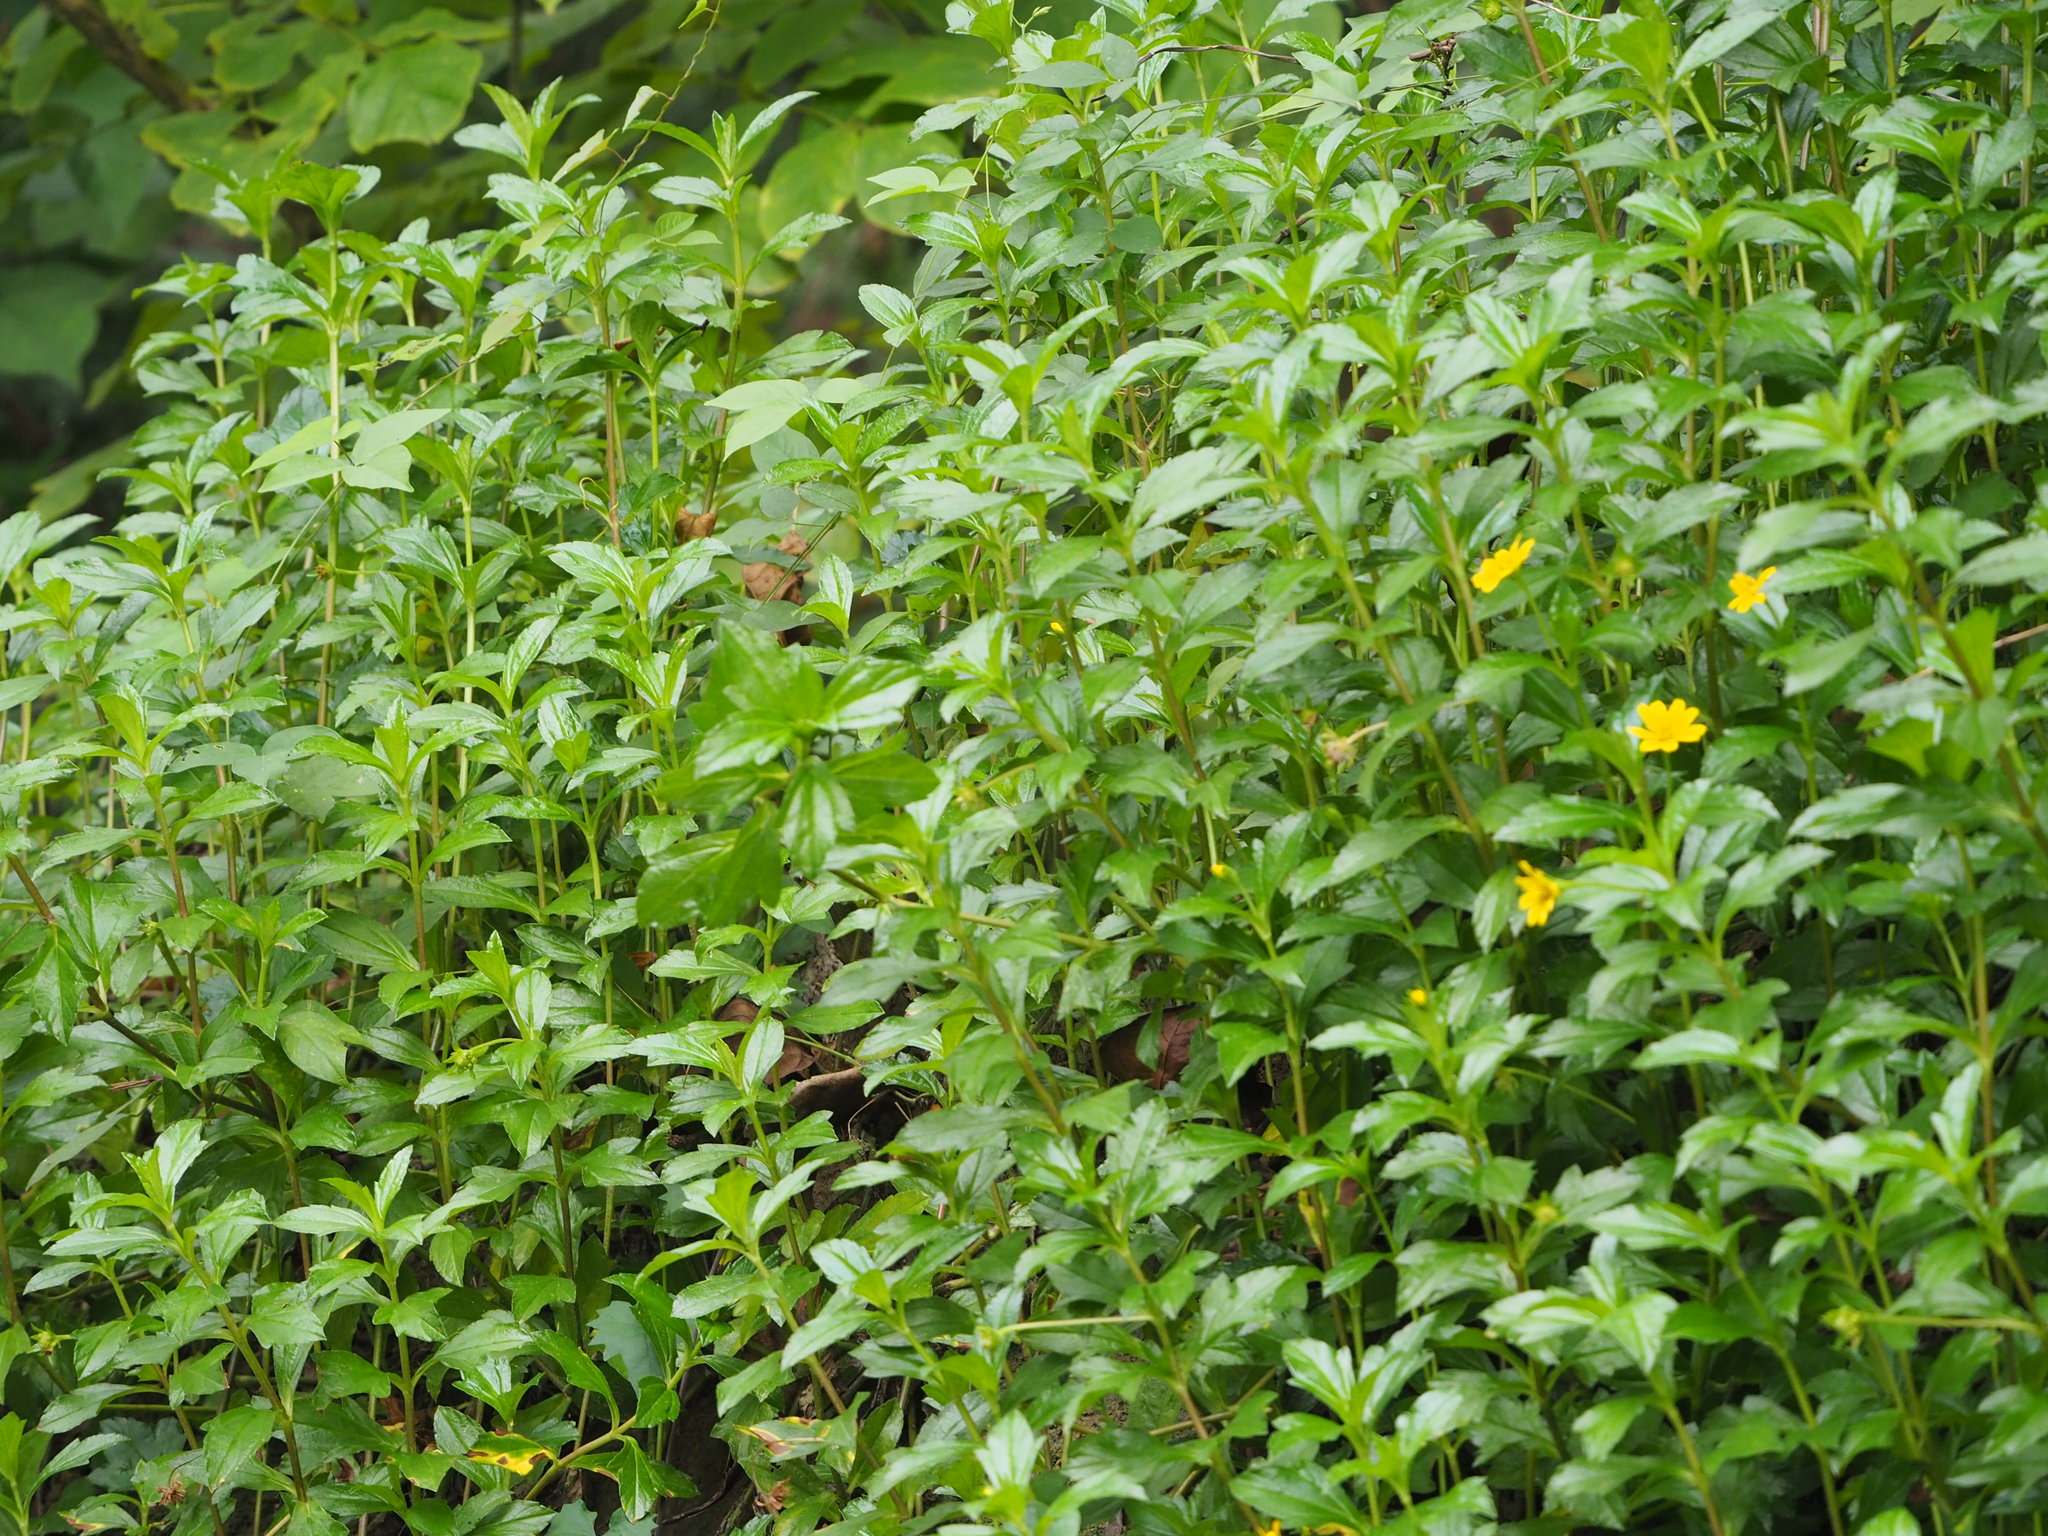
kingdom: Plantae
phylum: Tracheophyta
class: Magnoliopsida
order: Asterales
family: Asteraceae
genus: Sphagneticola
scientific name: Sphagneticola trilobata
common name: Bay biscayne creeping-oxeye
